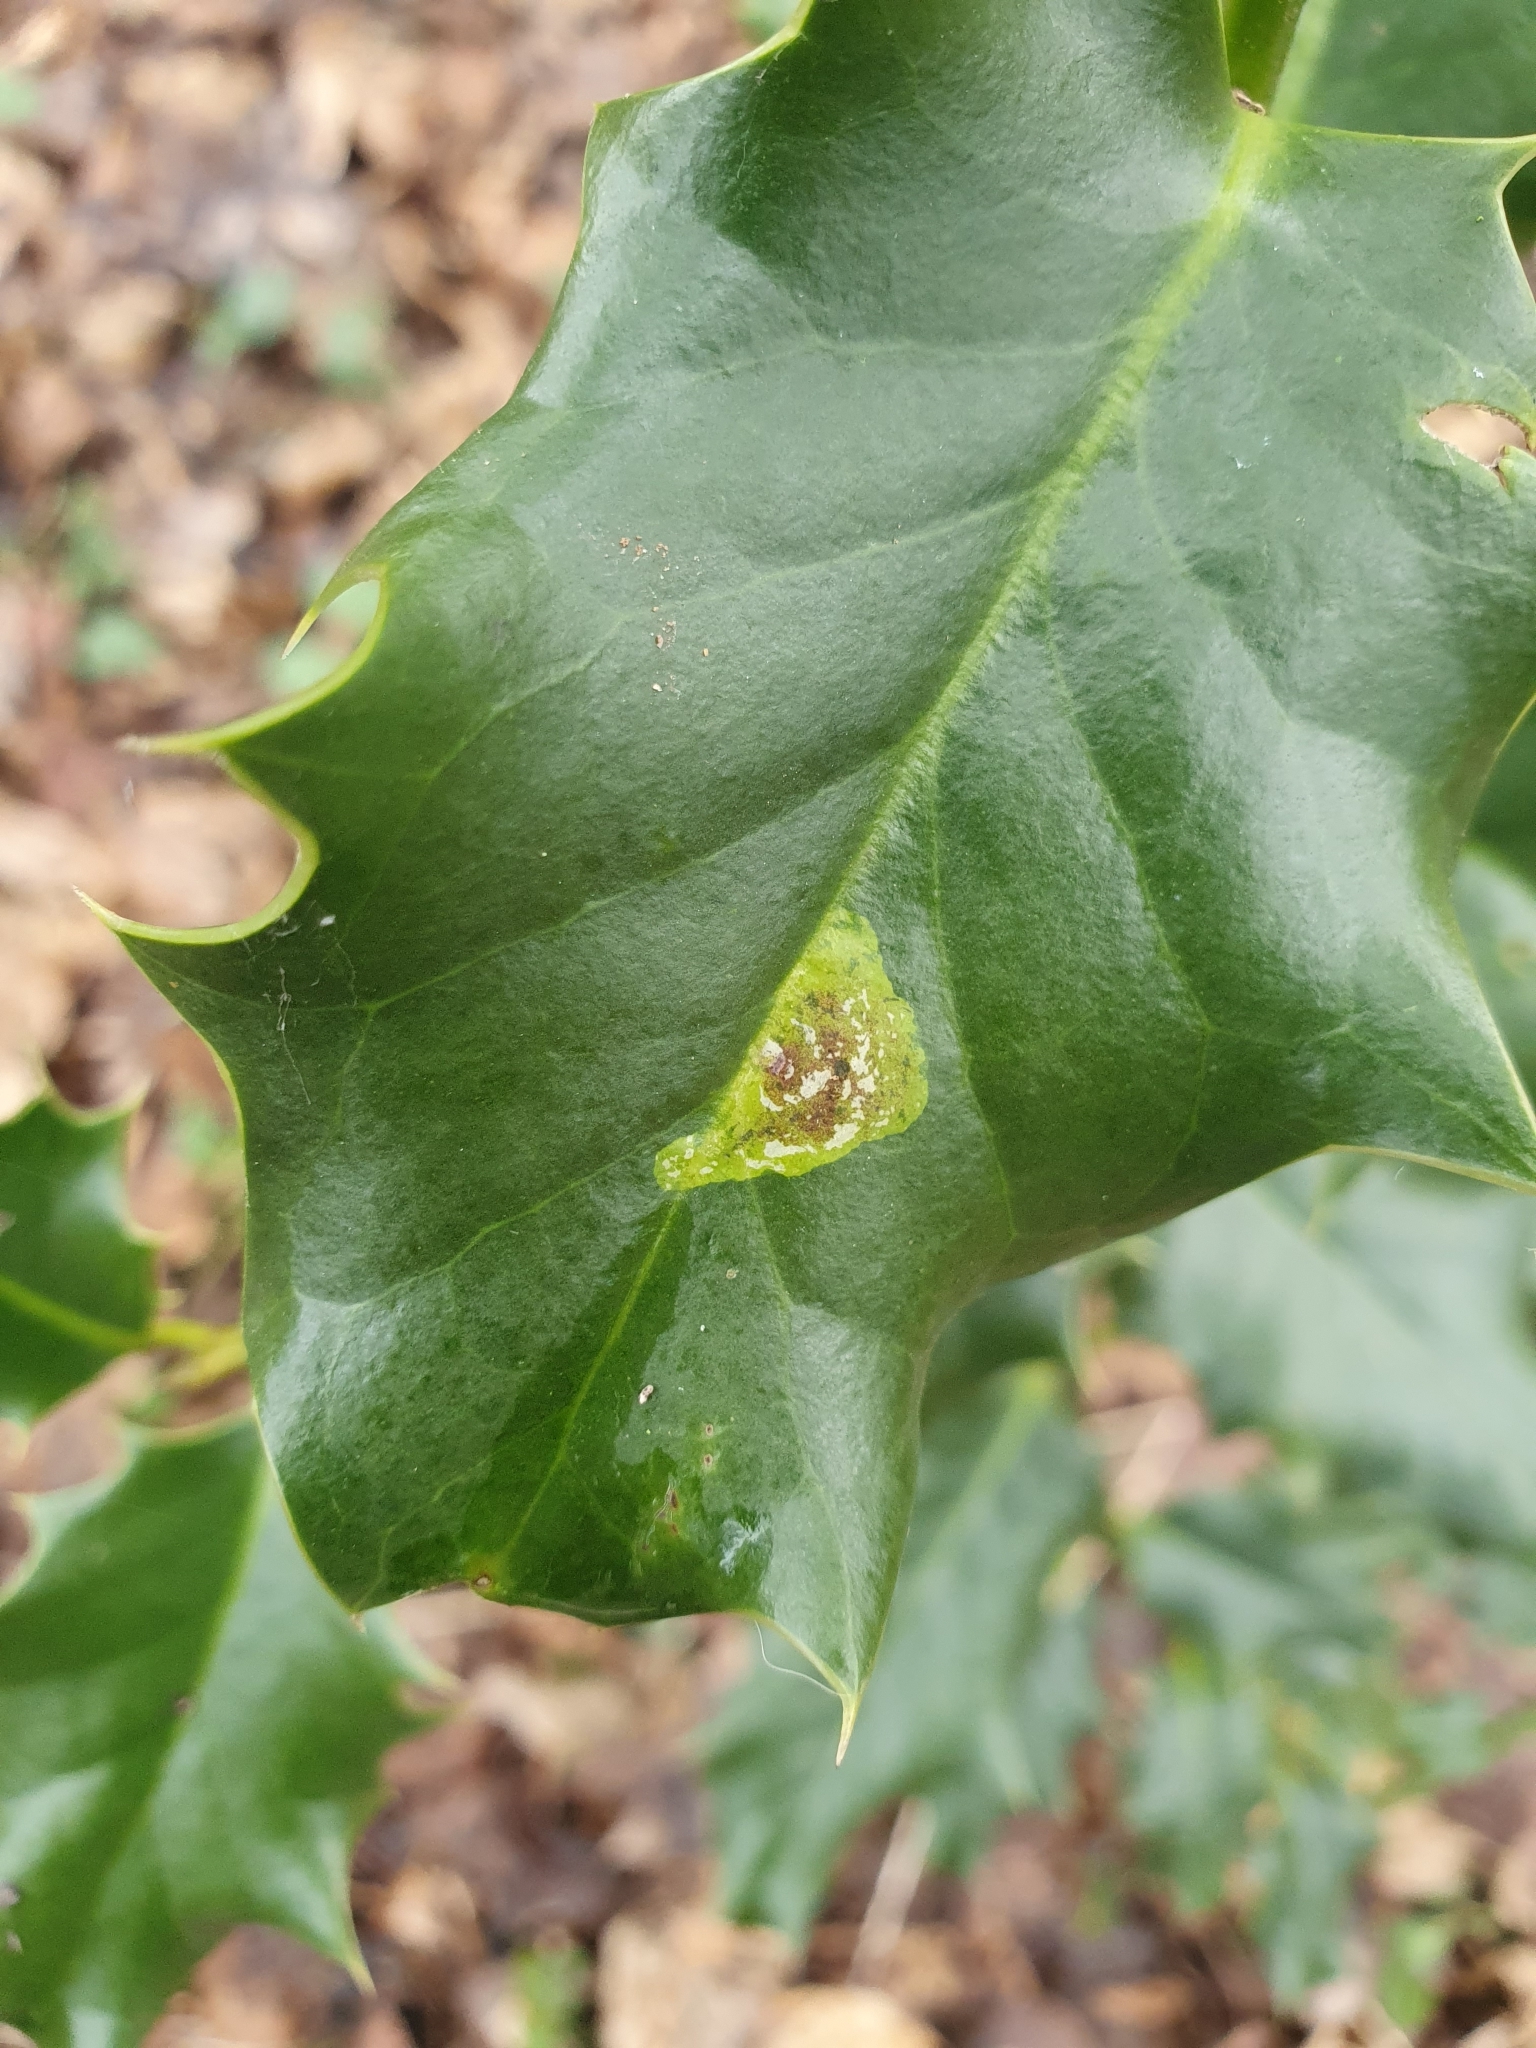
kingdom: Animalia
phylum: Arthropoda
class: Insecta
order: Diptera
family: Agromyzidae
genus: Phytomyza
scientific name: Phytomyza ilicis
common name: Holly leafminer
